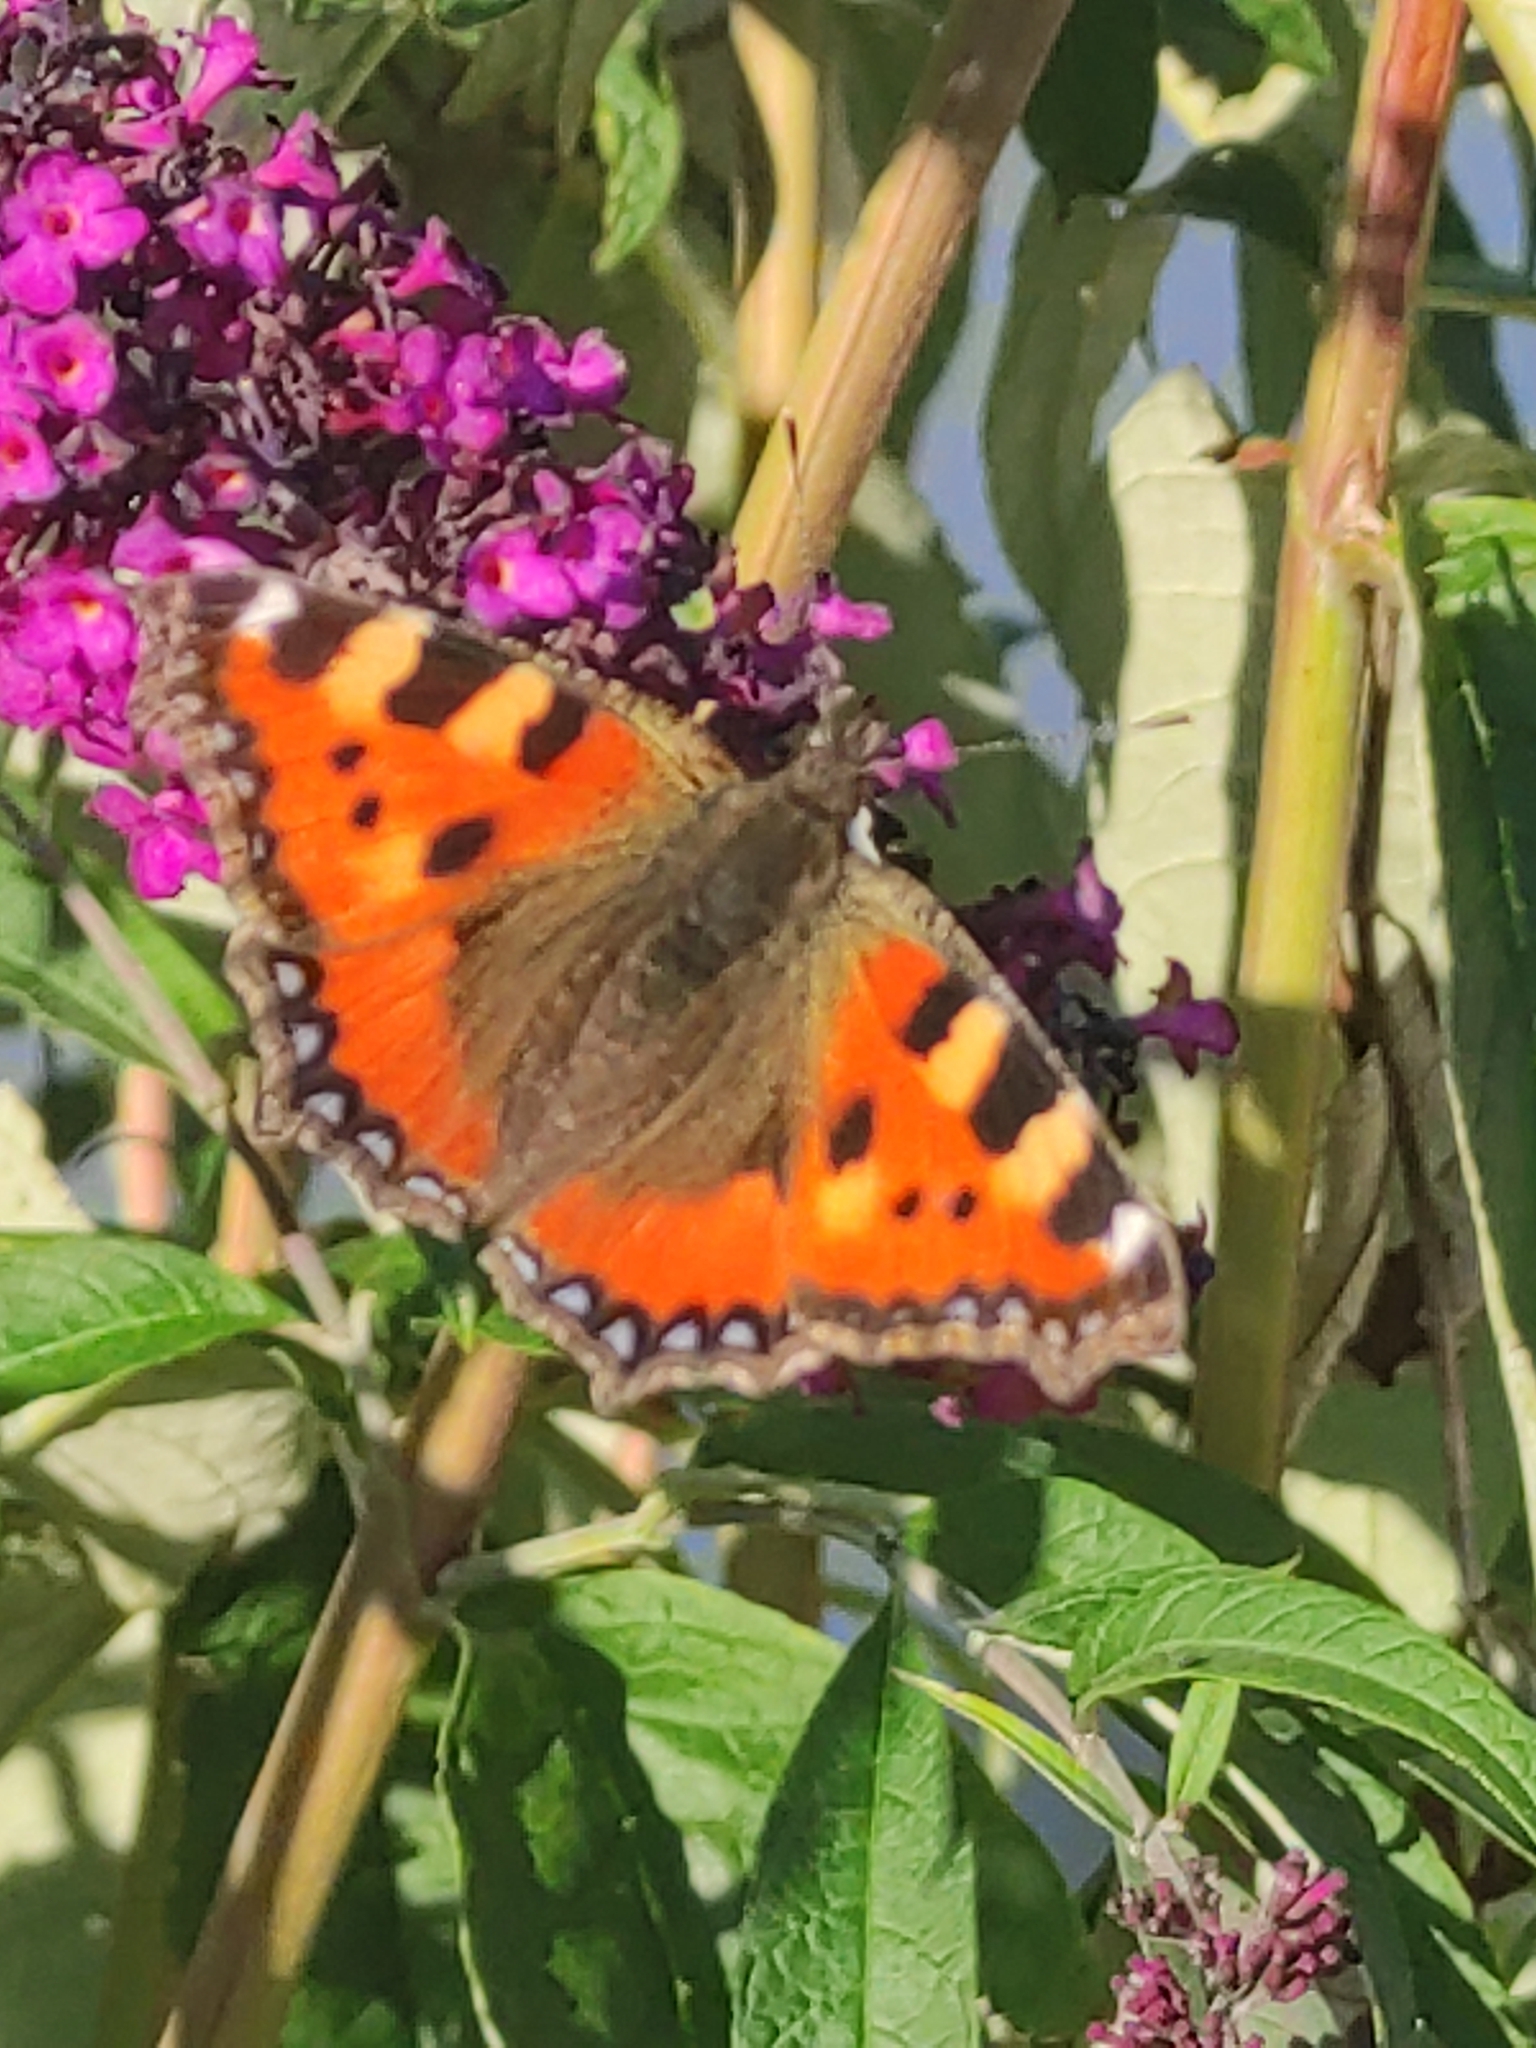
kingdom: Animalia
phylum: Arthropoda
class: Insecta
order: Lepidoptera
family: Nymphalidae
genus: Aglais
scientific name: Aglais urticae
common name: Small tortoiseshell
